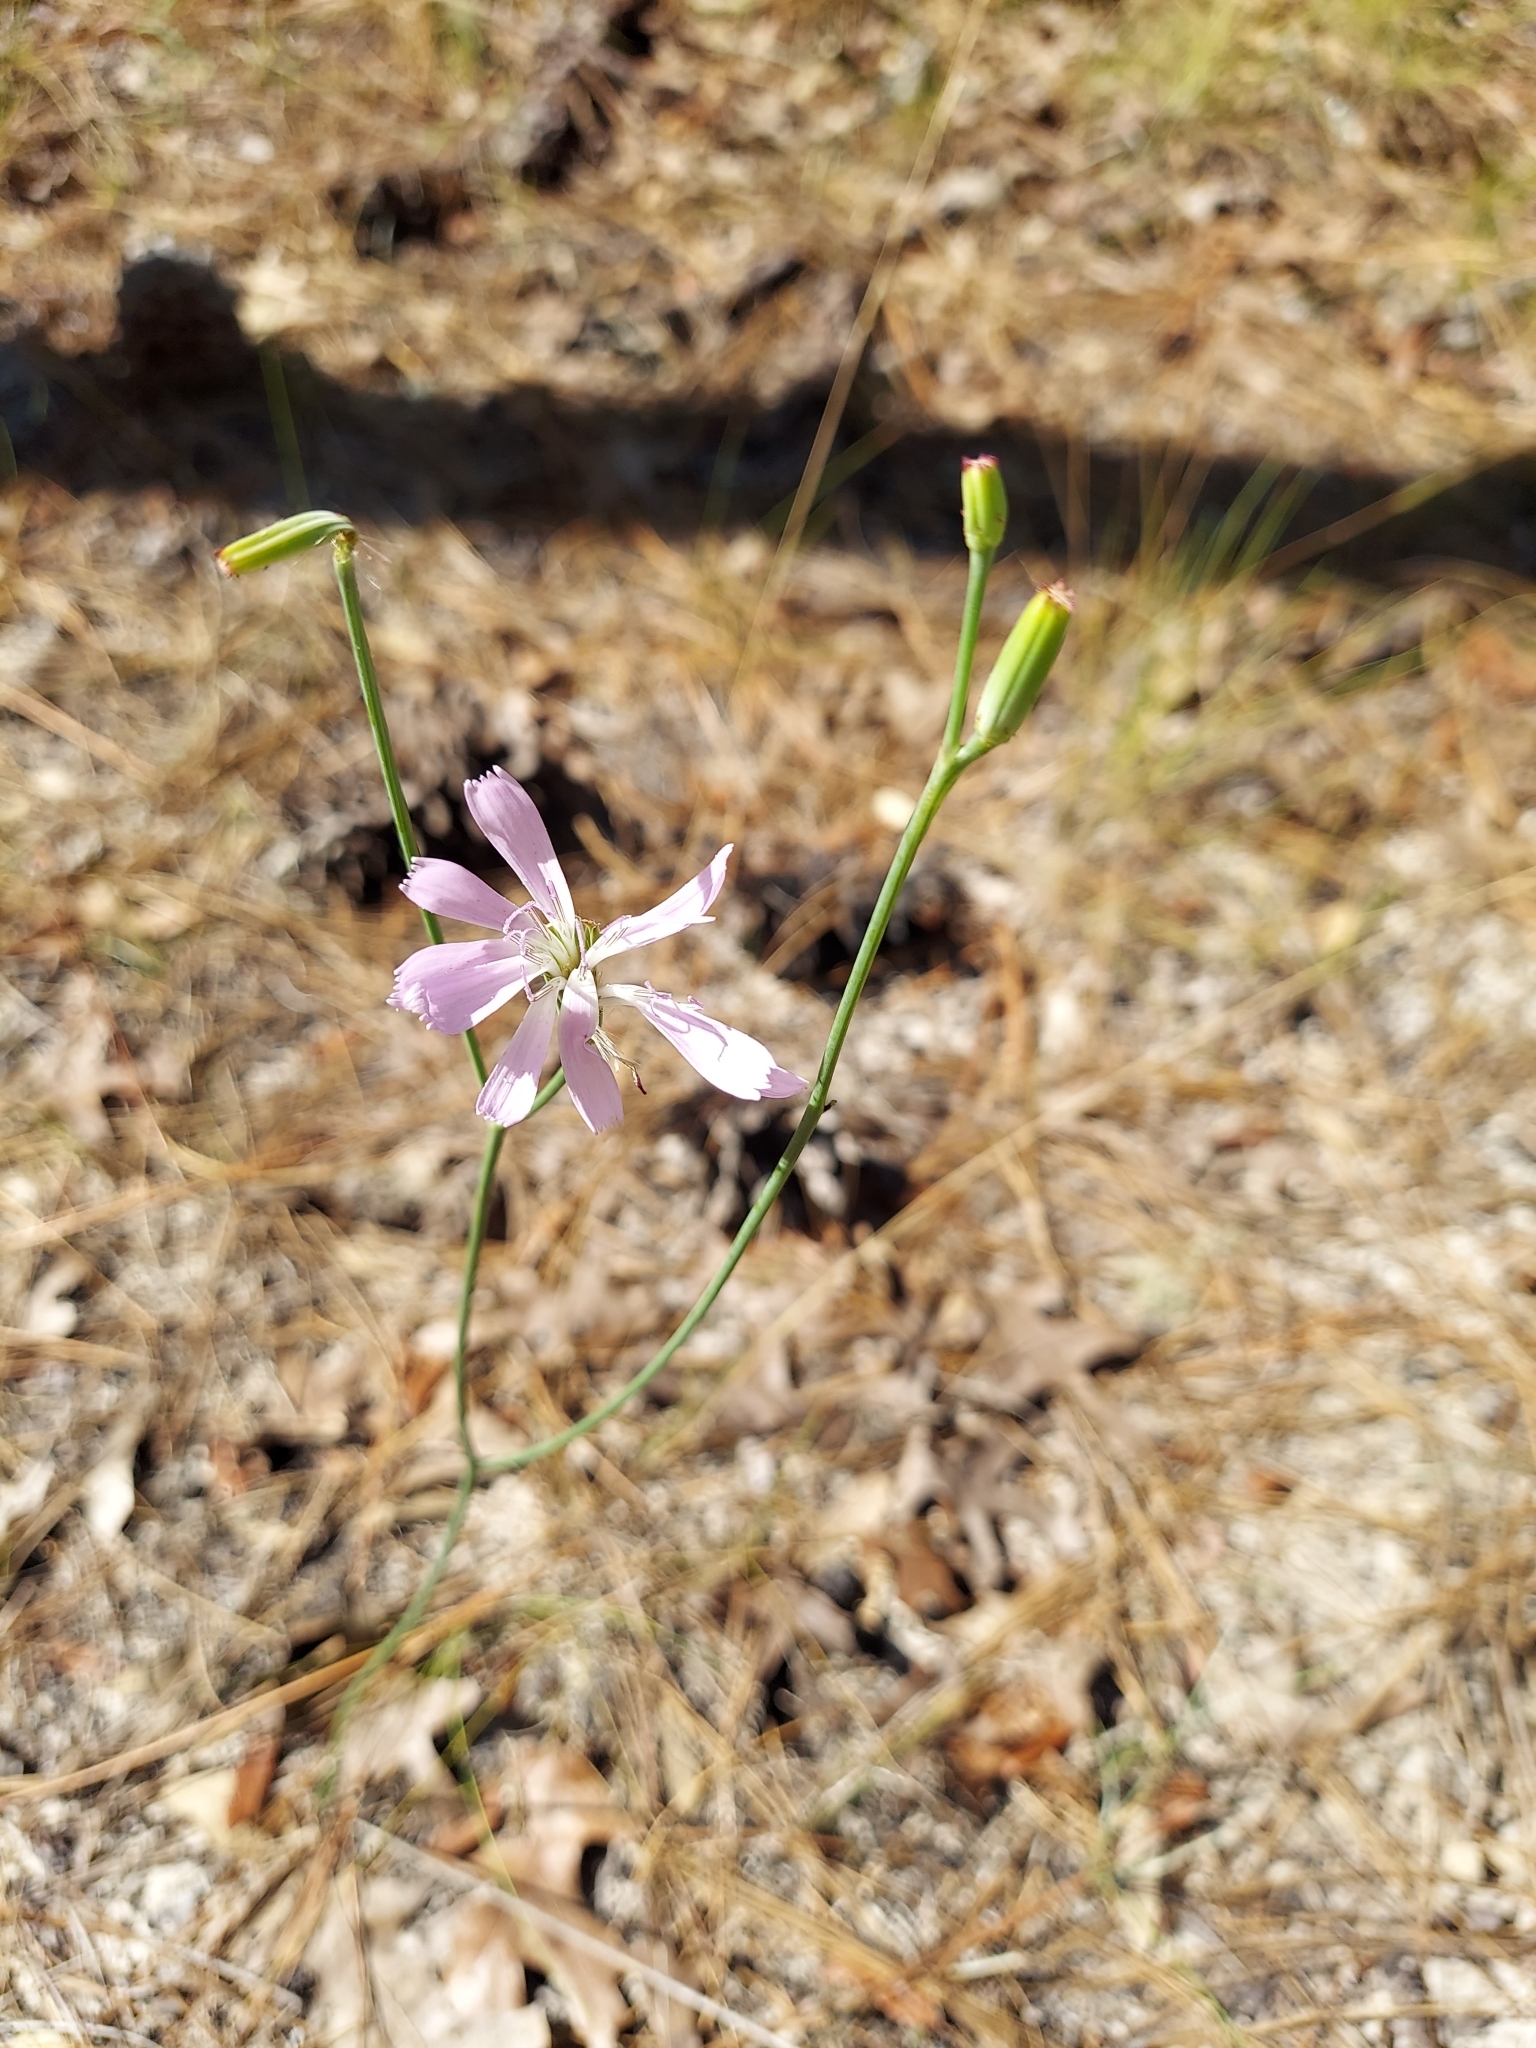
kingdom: Plantae
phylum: Tracheophyta
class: Magnoliopsida
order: Asterales
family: Asteraceae
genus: Lygodesmia
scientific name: Lygodesmia aphylla
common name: Rose-rush
